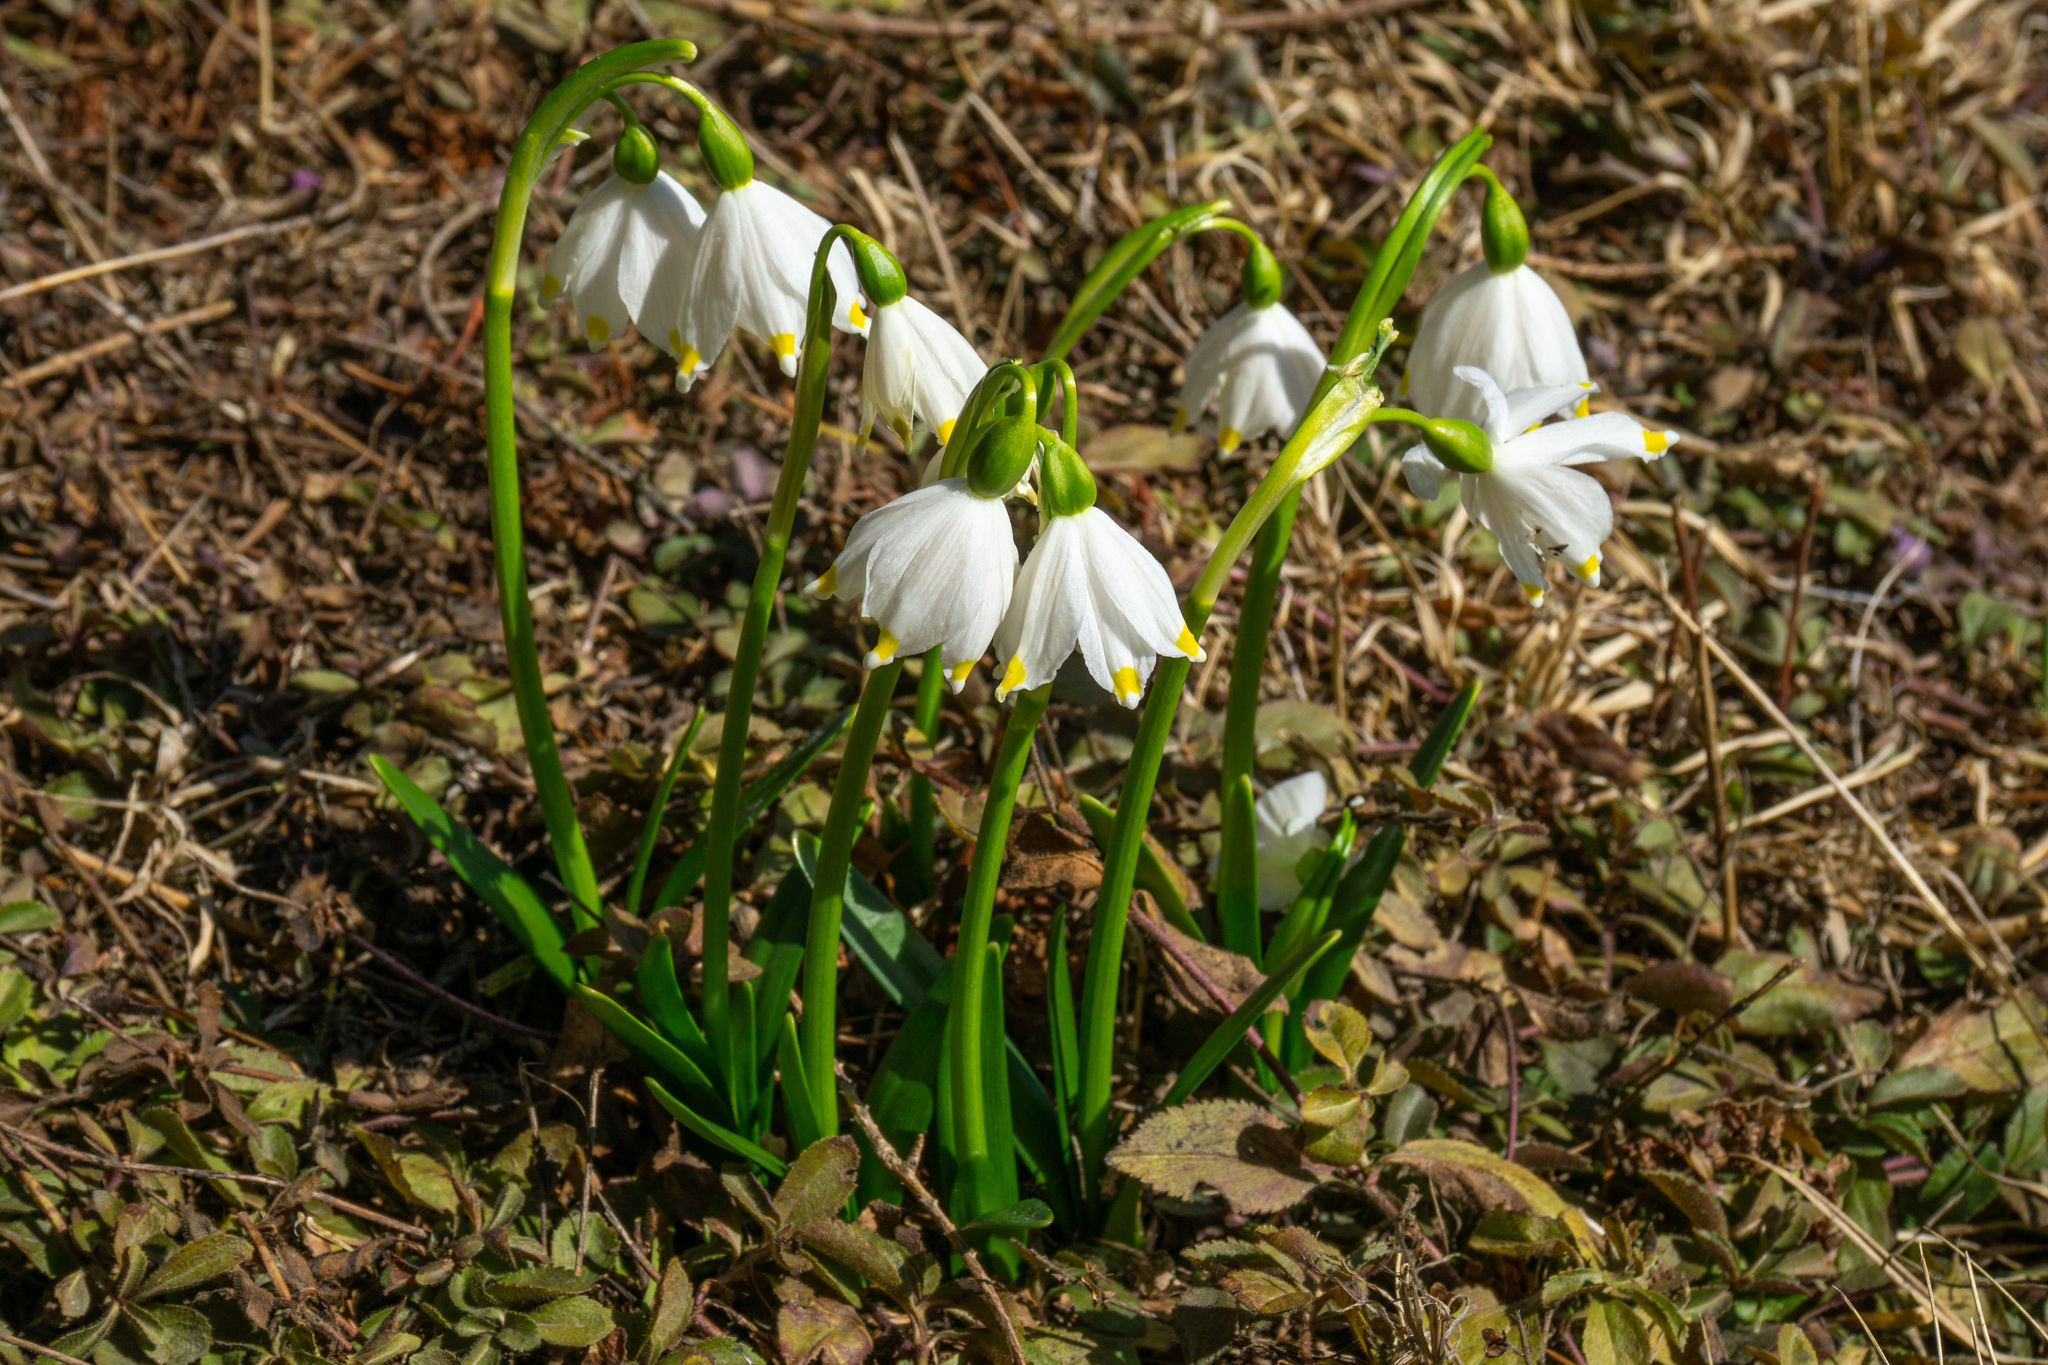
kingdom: Plantae
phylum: Tracheophyta
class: Liliopsida
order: Asparagales
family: Amaryllidaceae
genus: Leucojum
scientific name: Leucojum vernum
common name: Spring snowflake
